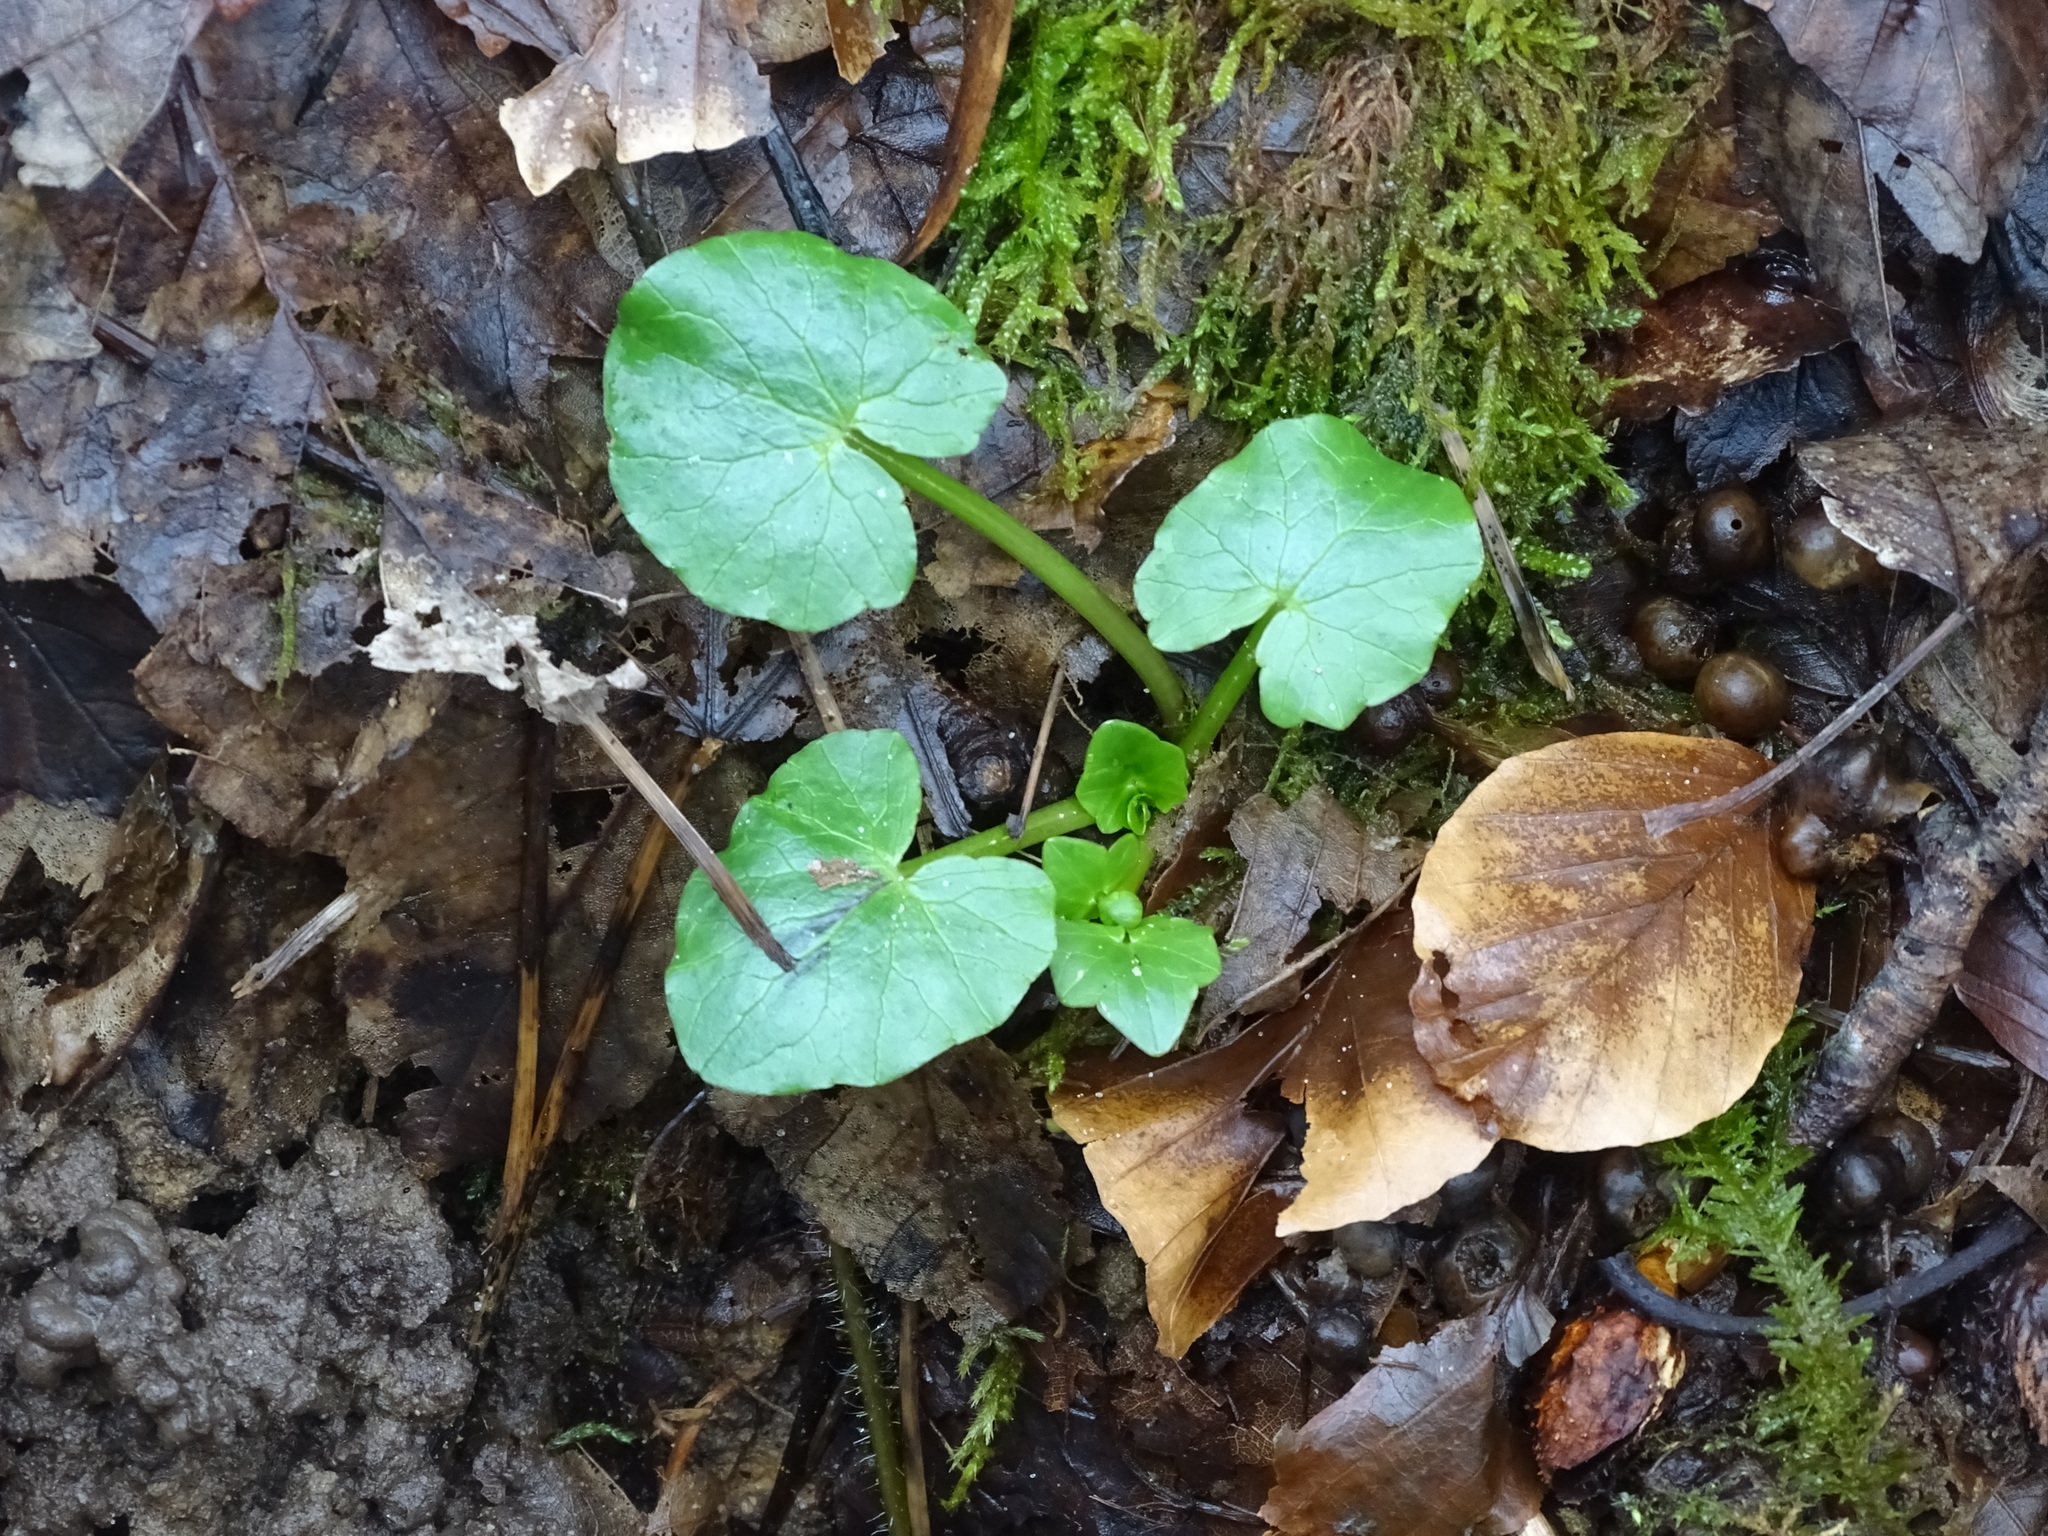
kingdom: Plantae
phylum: Tracheophyta
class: Magnoliopsida
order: Ranunculales
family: Ranunculaceae
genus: Ficaria
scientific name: Ficaria verna
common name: Lesser celandine
